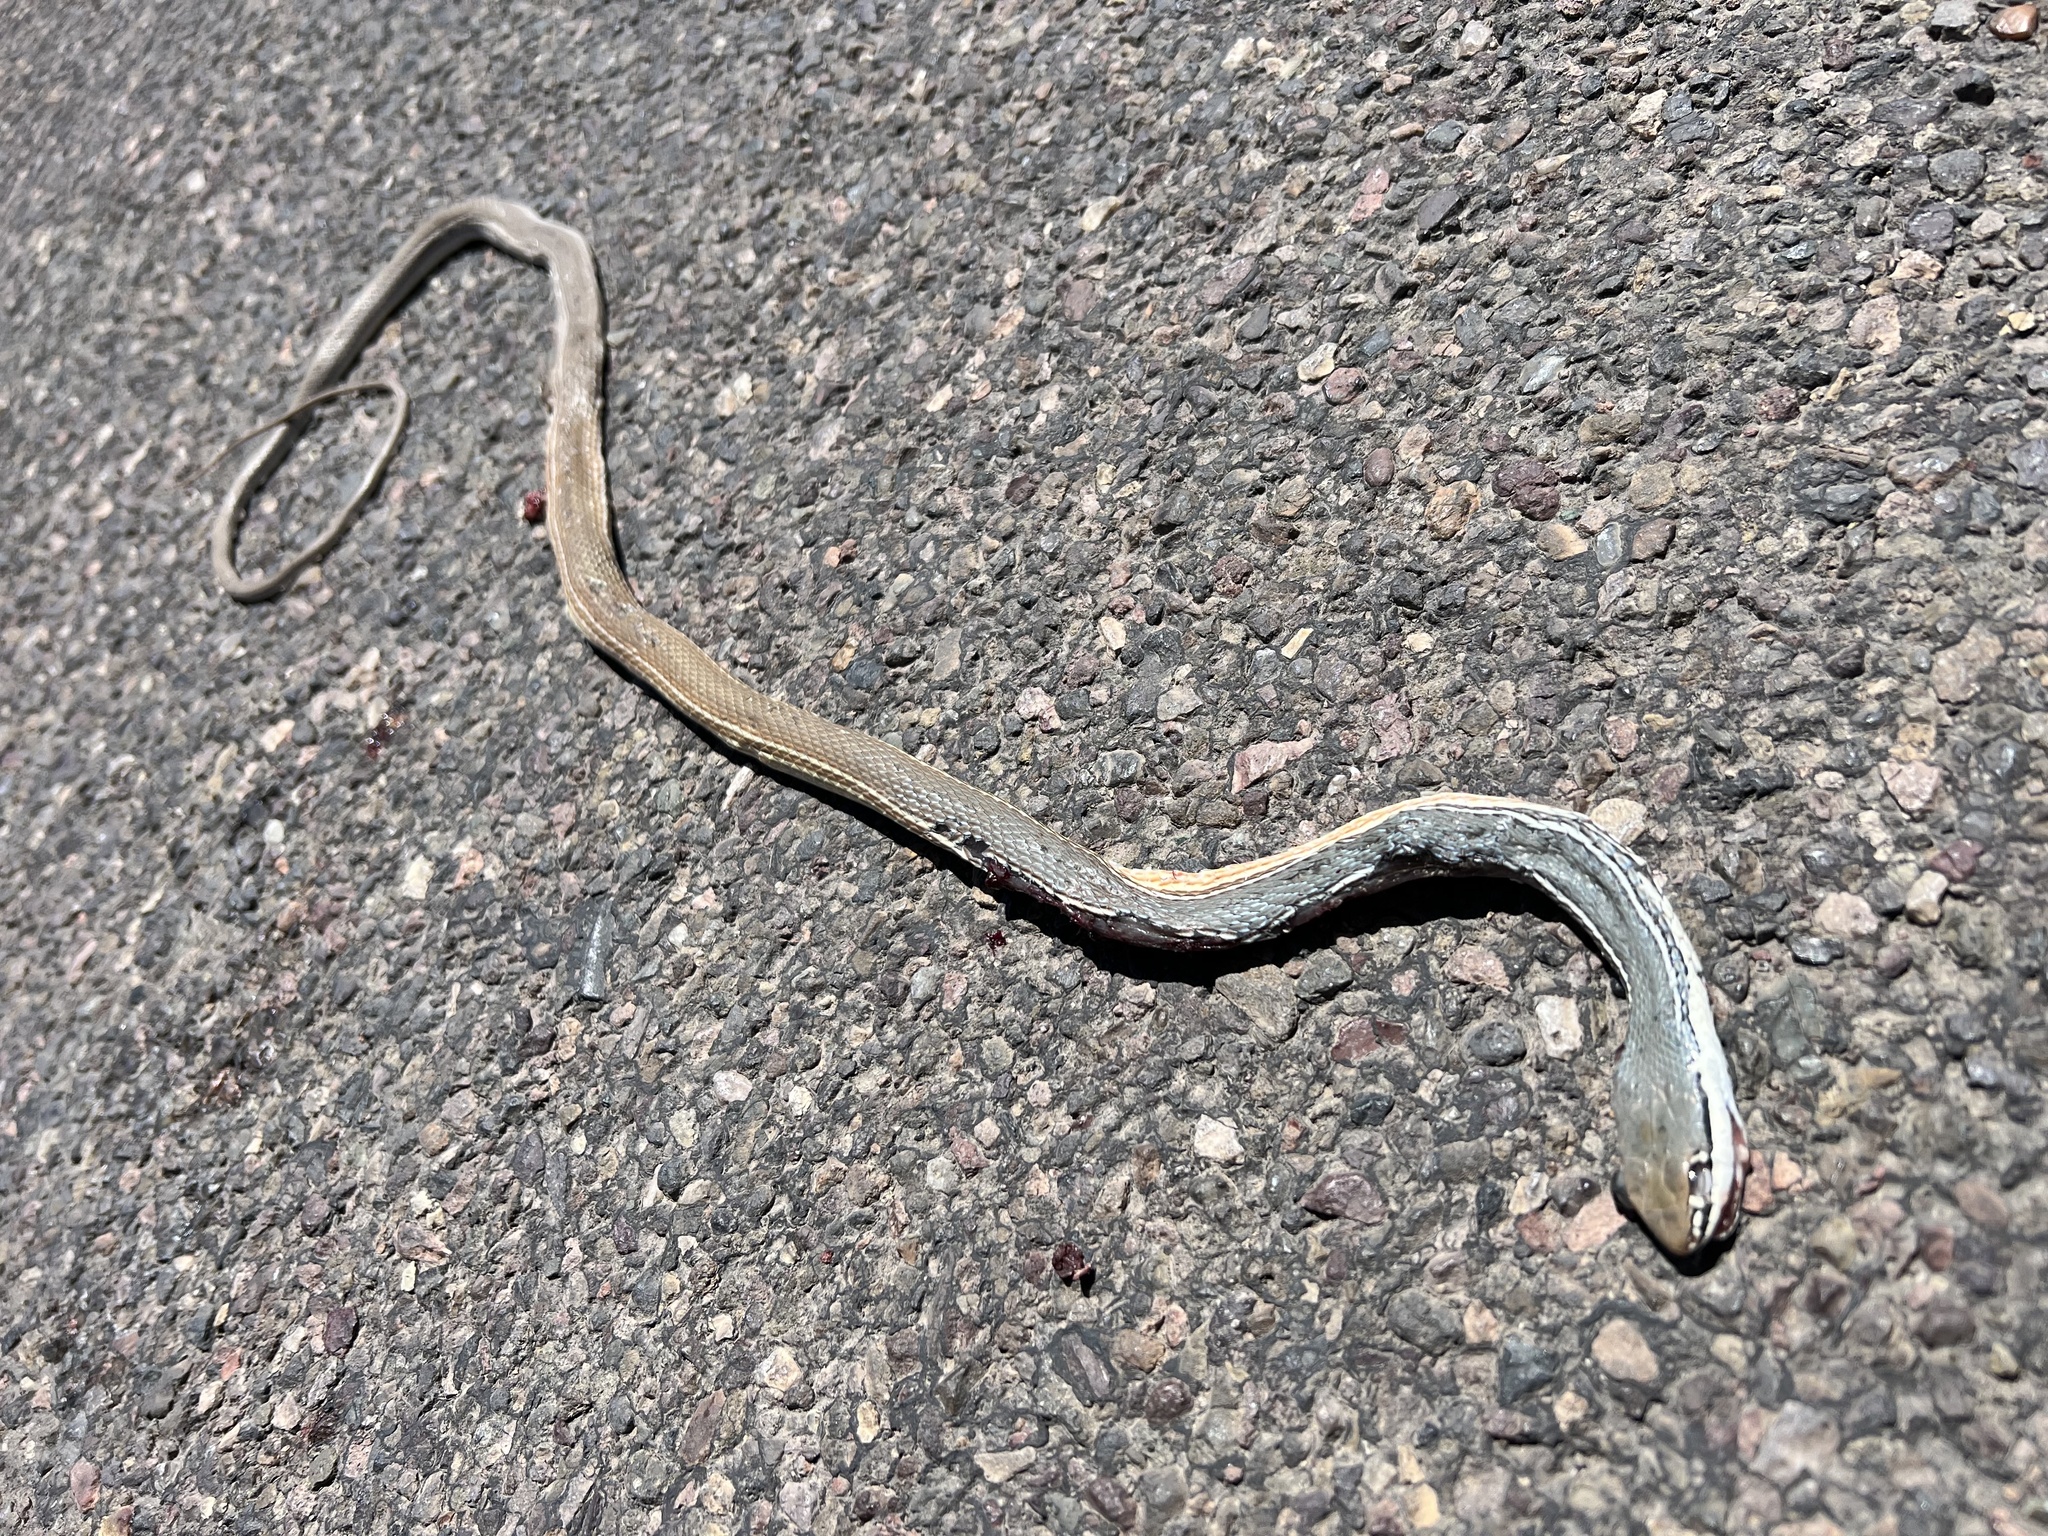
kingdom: Animalia
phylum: Chordata
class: Squamata
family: Colubridae
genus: Masticophis
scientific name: Masticophis bilineatus
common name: Sonoran whipsnake
